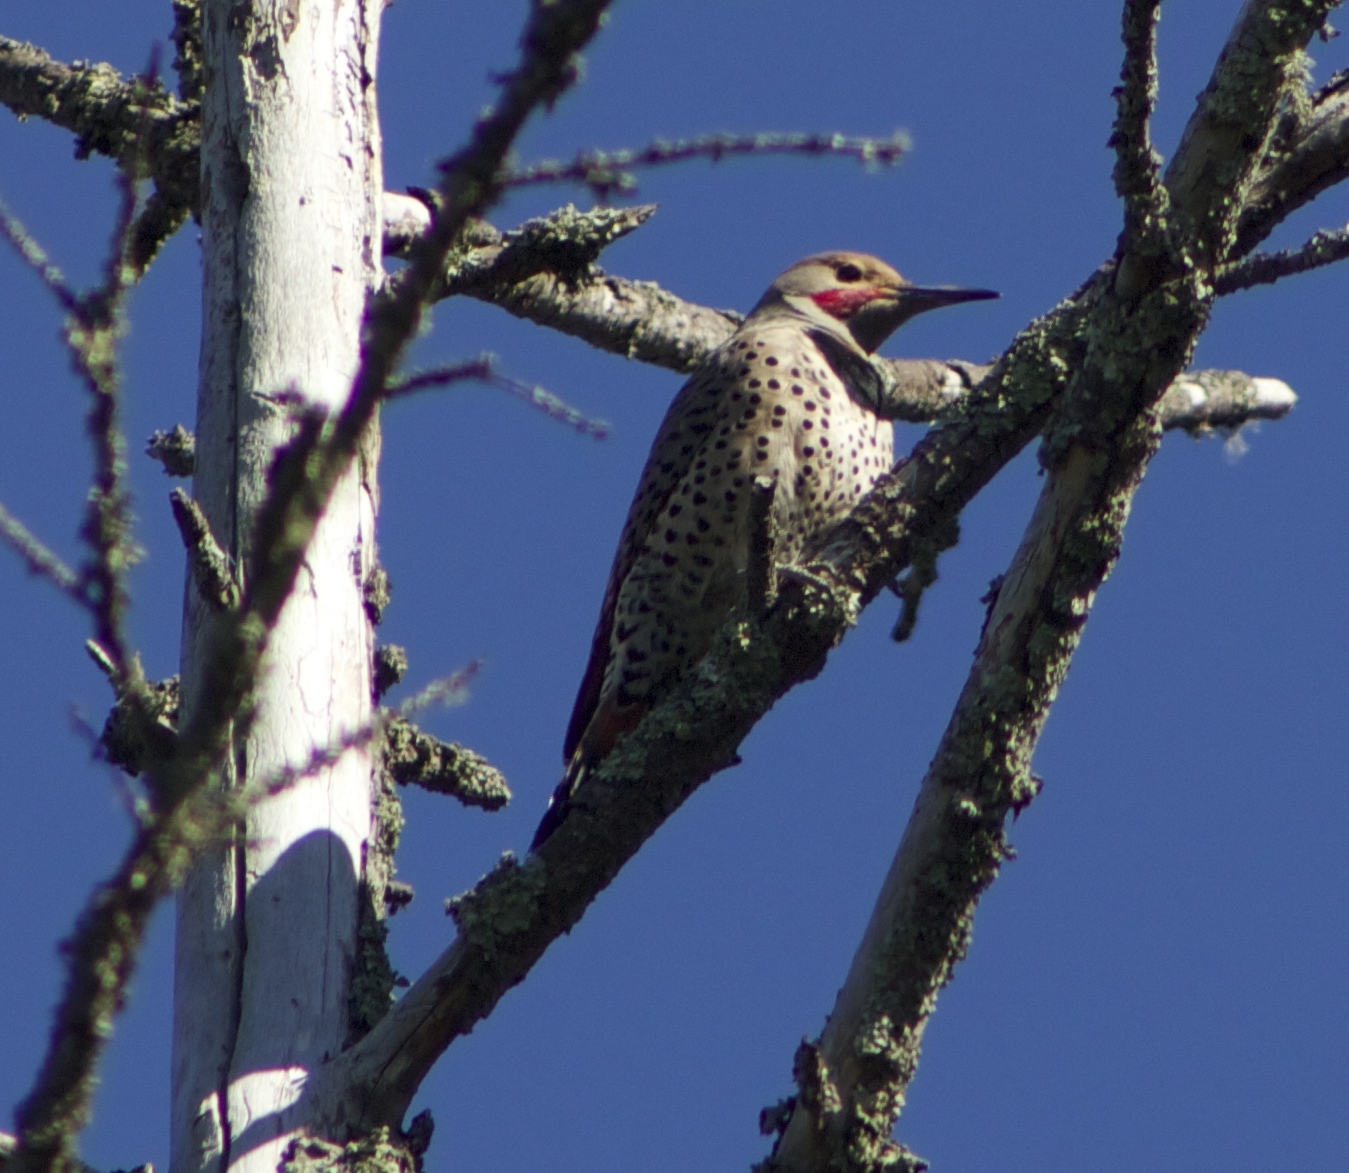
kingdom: Animalia
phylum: Chordata
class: Aves
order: Piciformes
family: Picidae
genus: Colaptes
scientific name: Colaptes auratus
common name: Northern flicker
